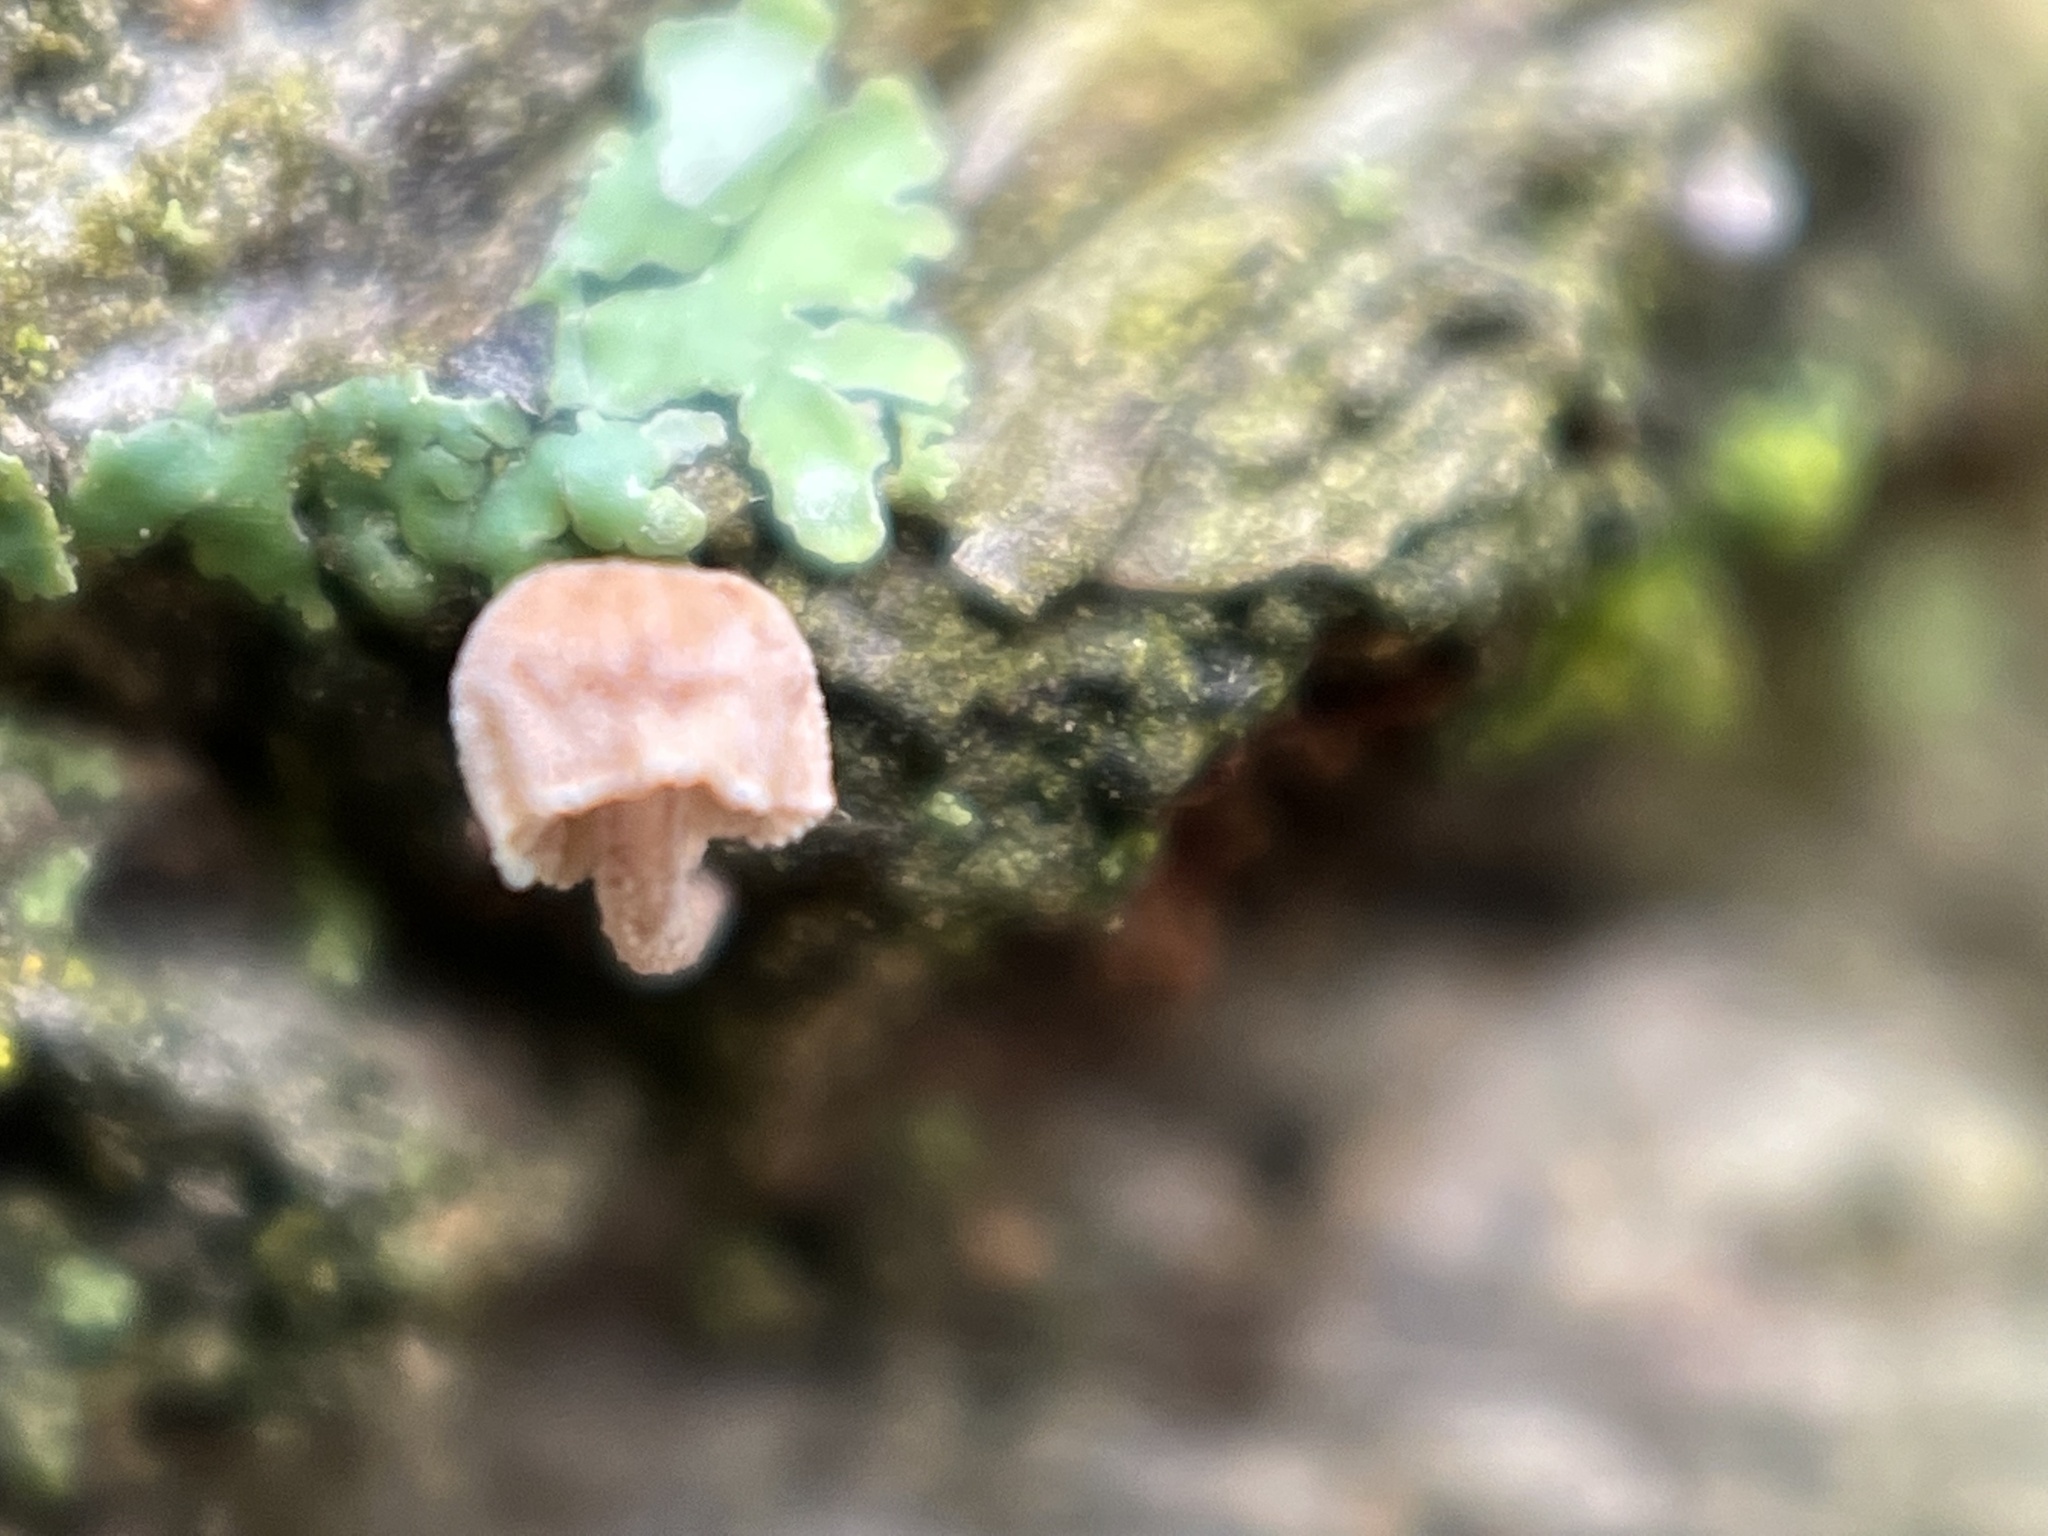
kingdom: Fungi
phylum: Basidiomycota
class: Agaricomycetes
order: Agaricales
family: Mycenaceae
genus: Mycena
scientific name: Mycena corticola
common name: Bark mycena
